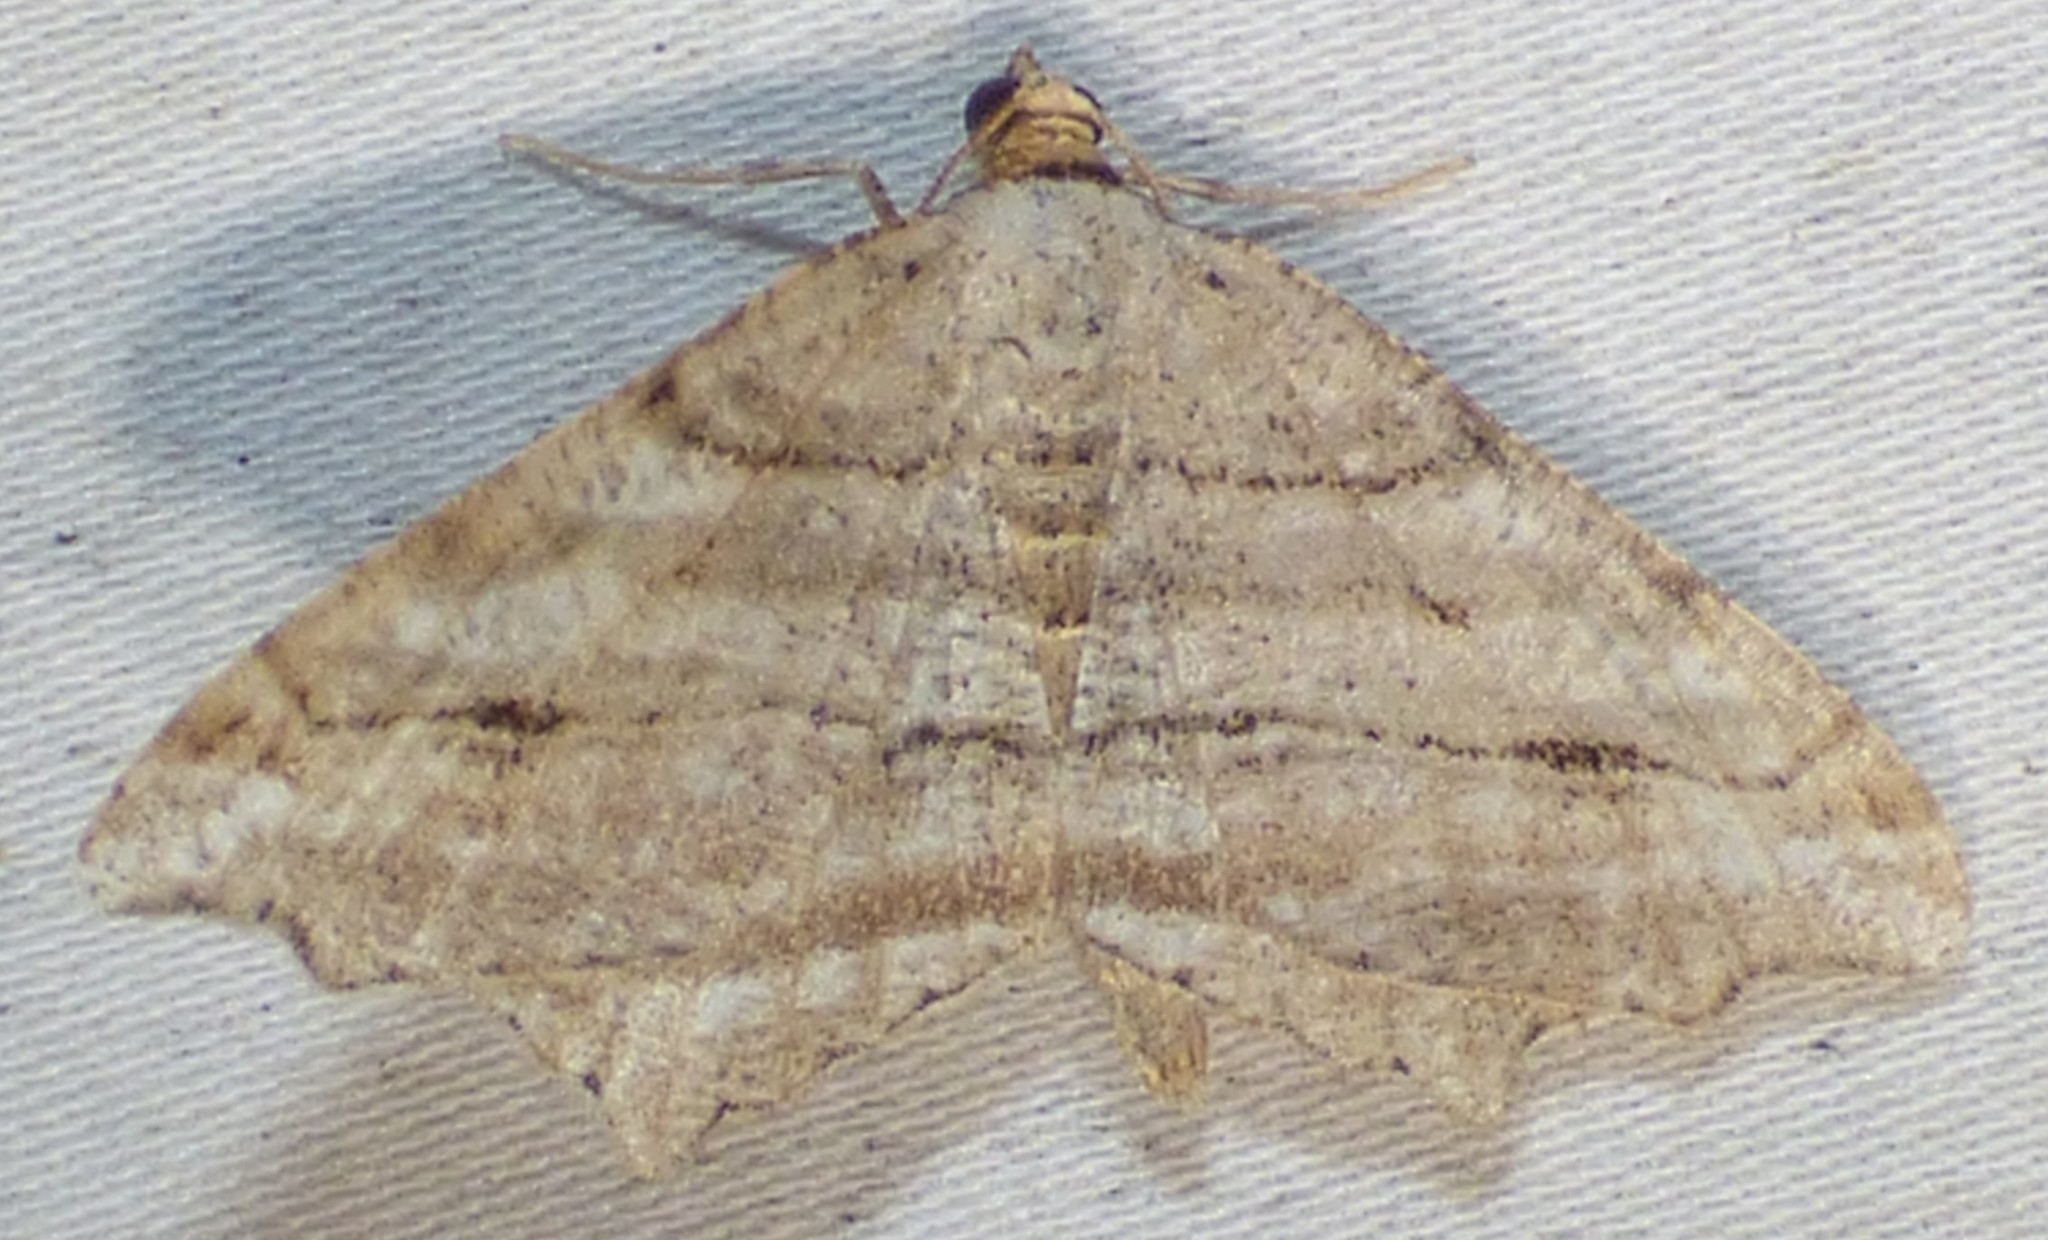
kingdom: Animalia
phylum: Arthropoda
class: Insecta
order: Lepidoptera
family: Geometridae
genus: Macaria
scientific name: Macaria multilineata
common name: Many-lined angle
